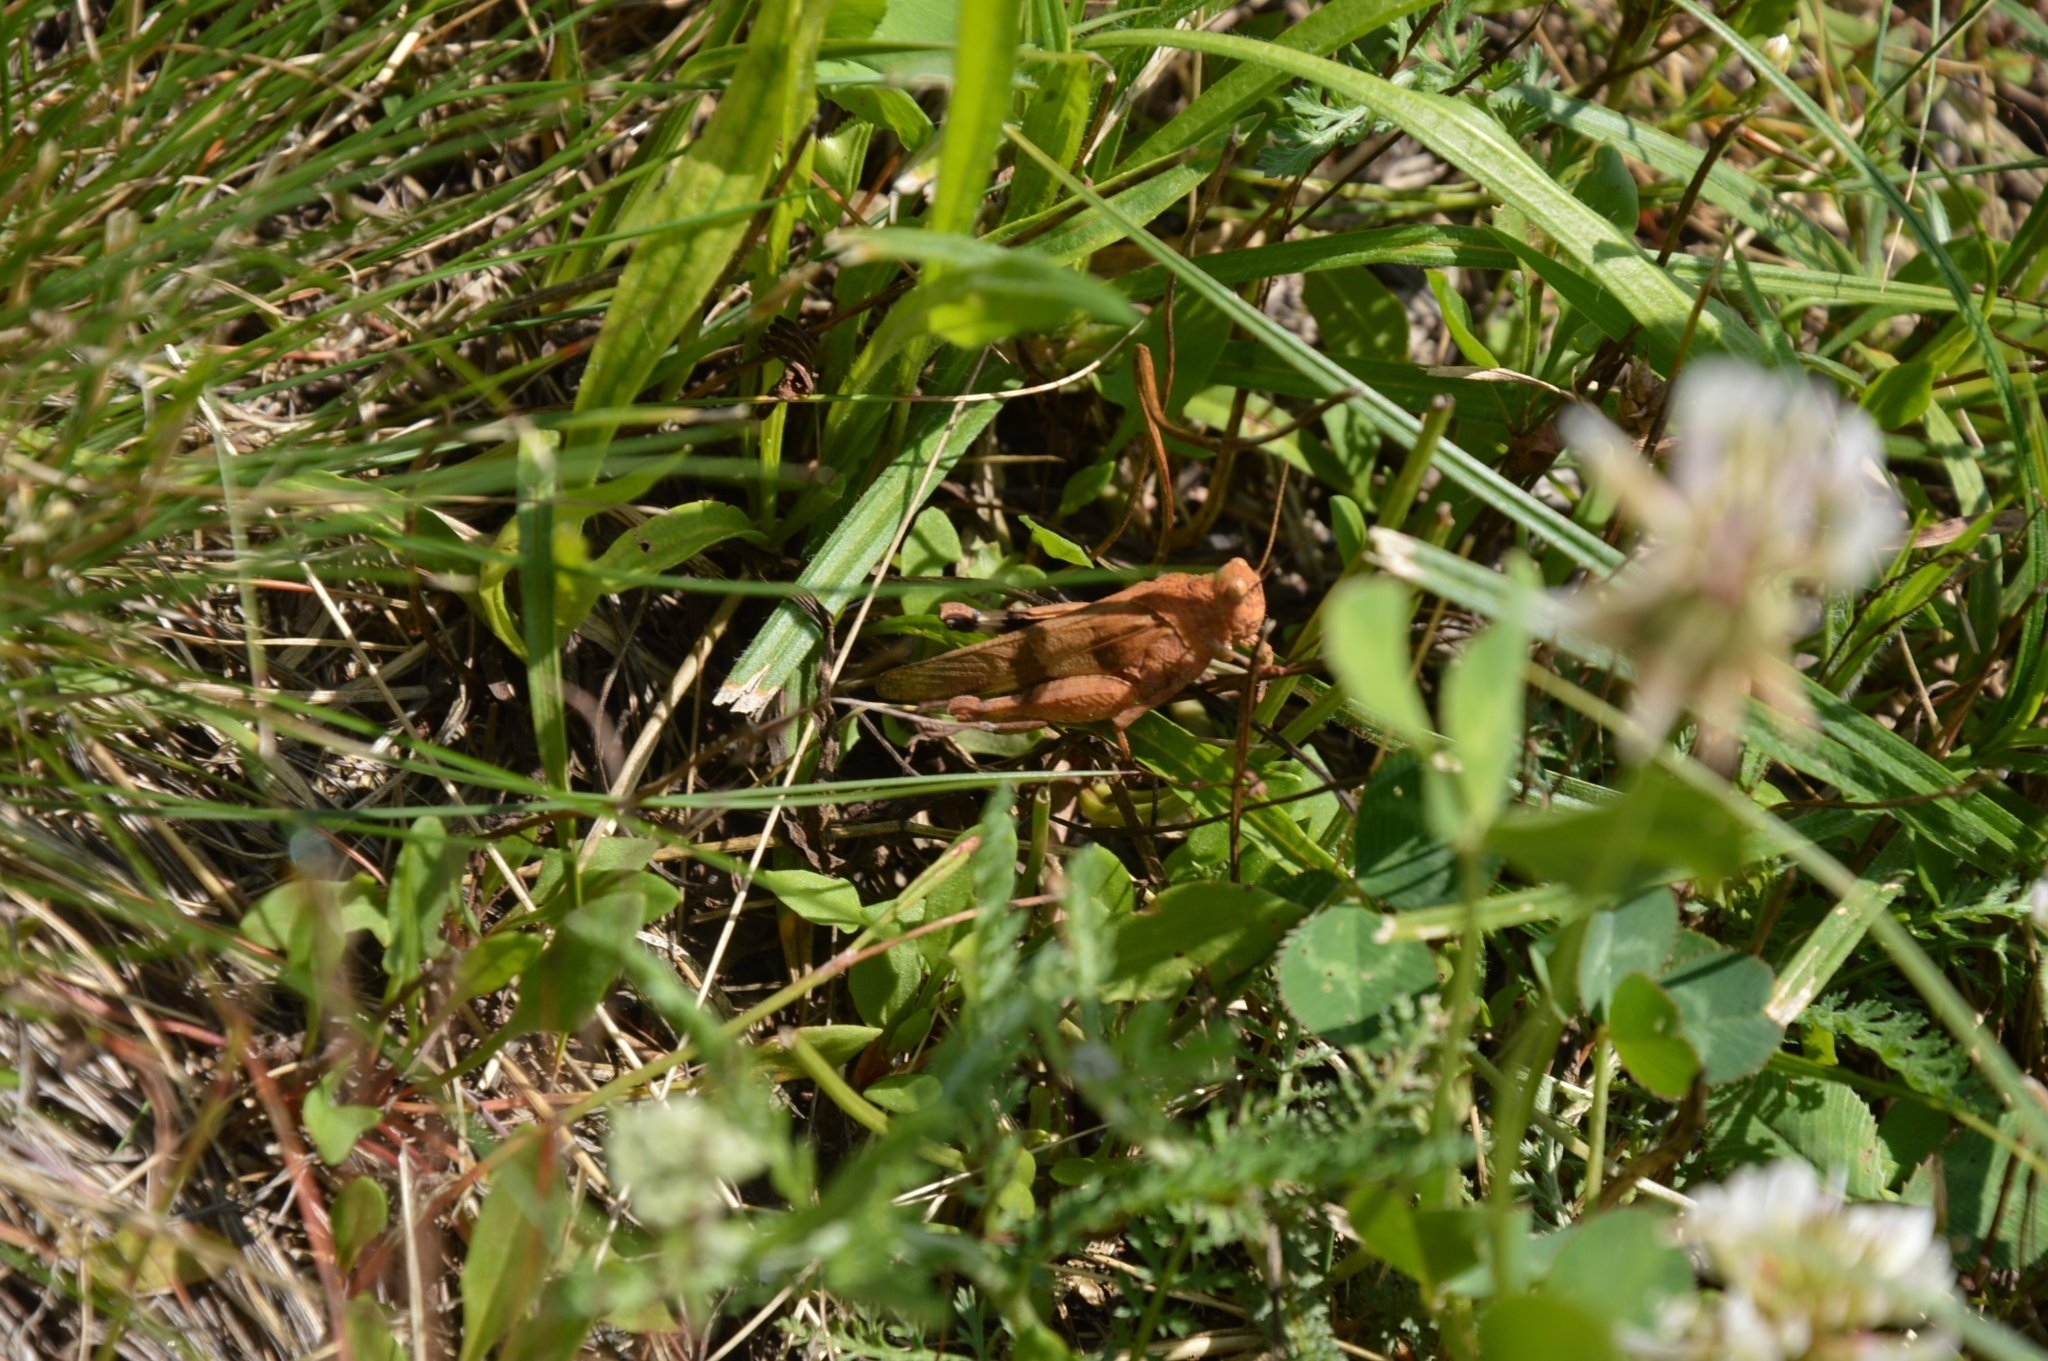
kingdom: Animalia
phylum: Arthropoda
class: Insecta
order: Orthoptera
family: Acrididae
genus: Oedipoda
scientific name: Oedipoda caerulescens
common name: Blue-winged grasshopper
